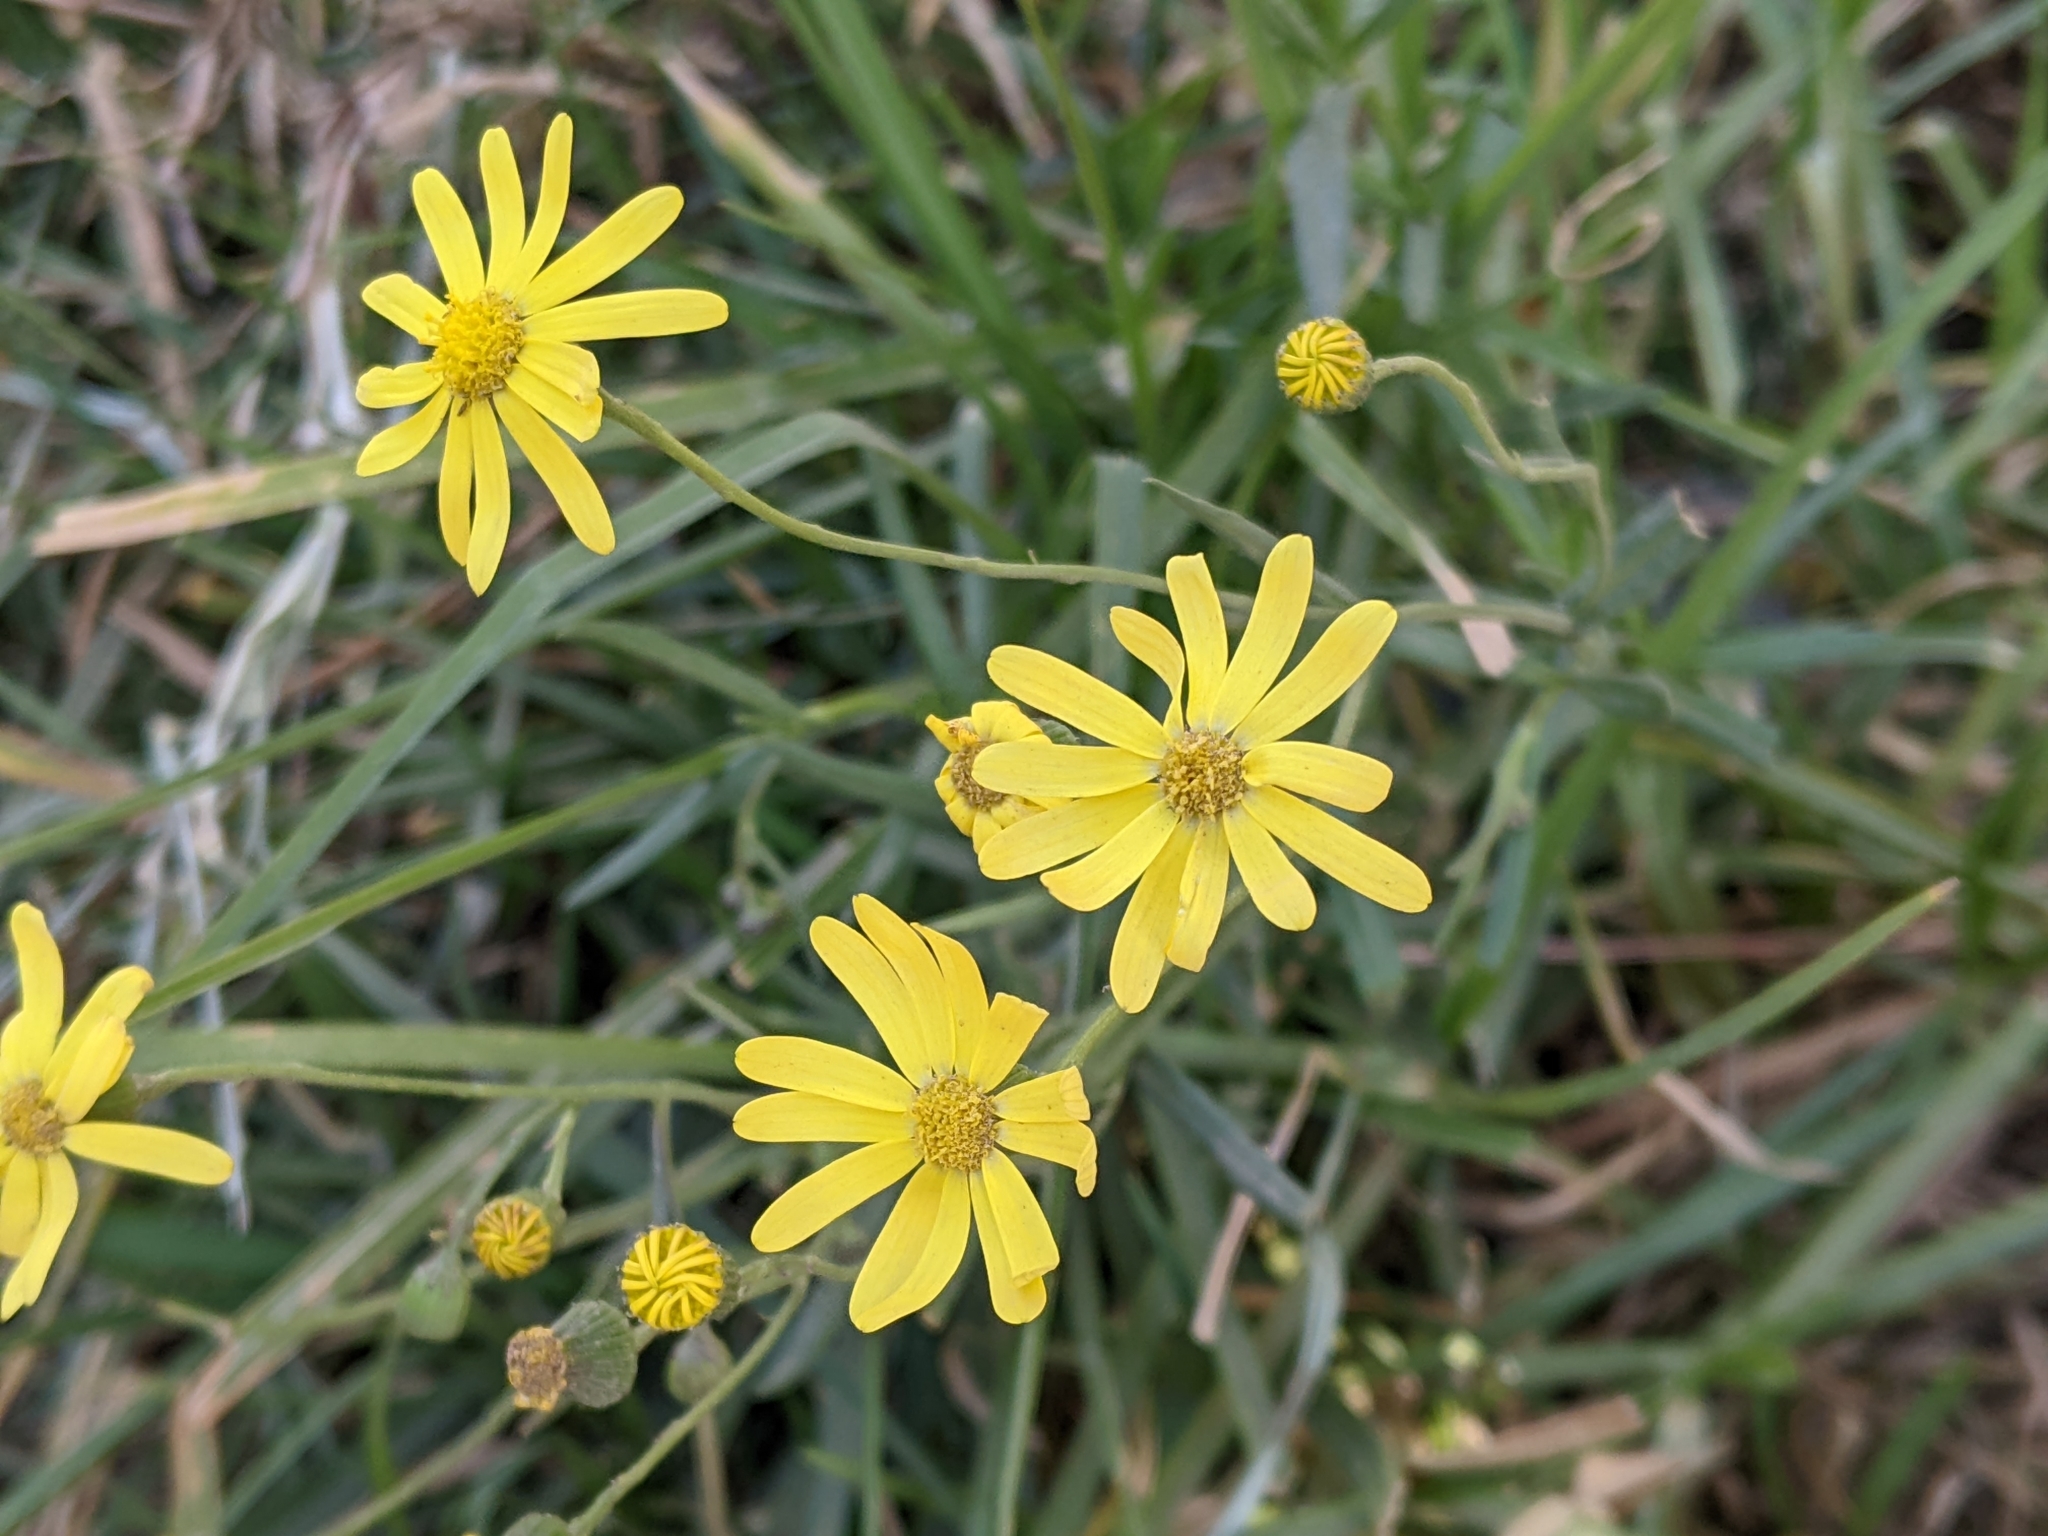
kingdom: Plantae
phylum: Tracheophyta
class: Magnoliopsida
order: Asterales
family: Asteraceae
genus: Senecio
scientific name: Senecio inaequidens
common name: Narrow-leaved ragwort
